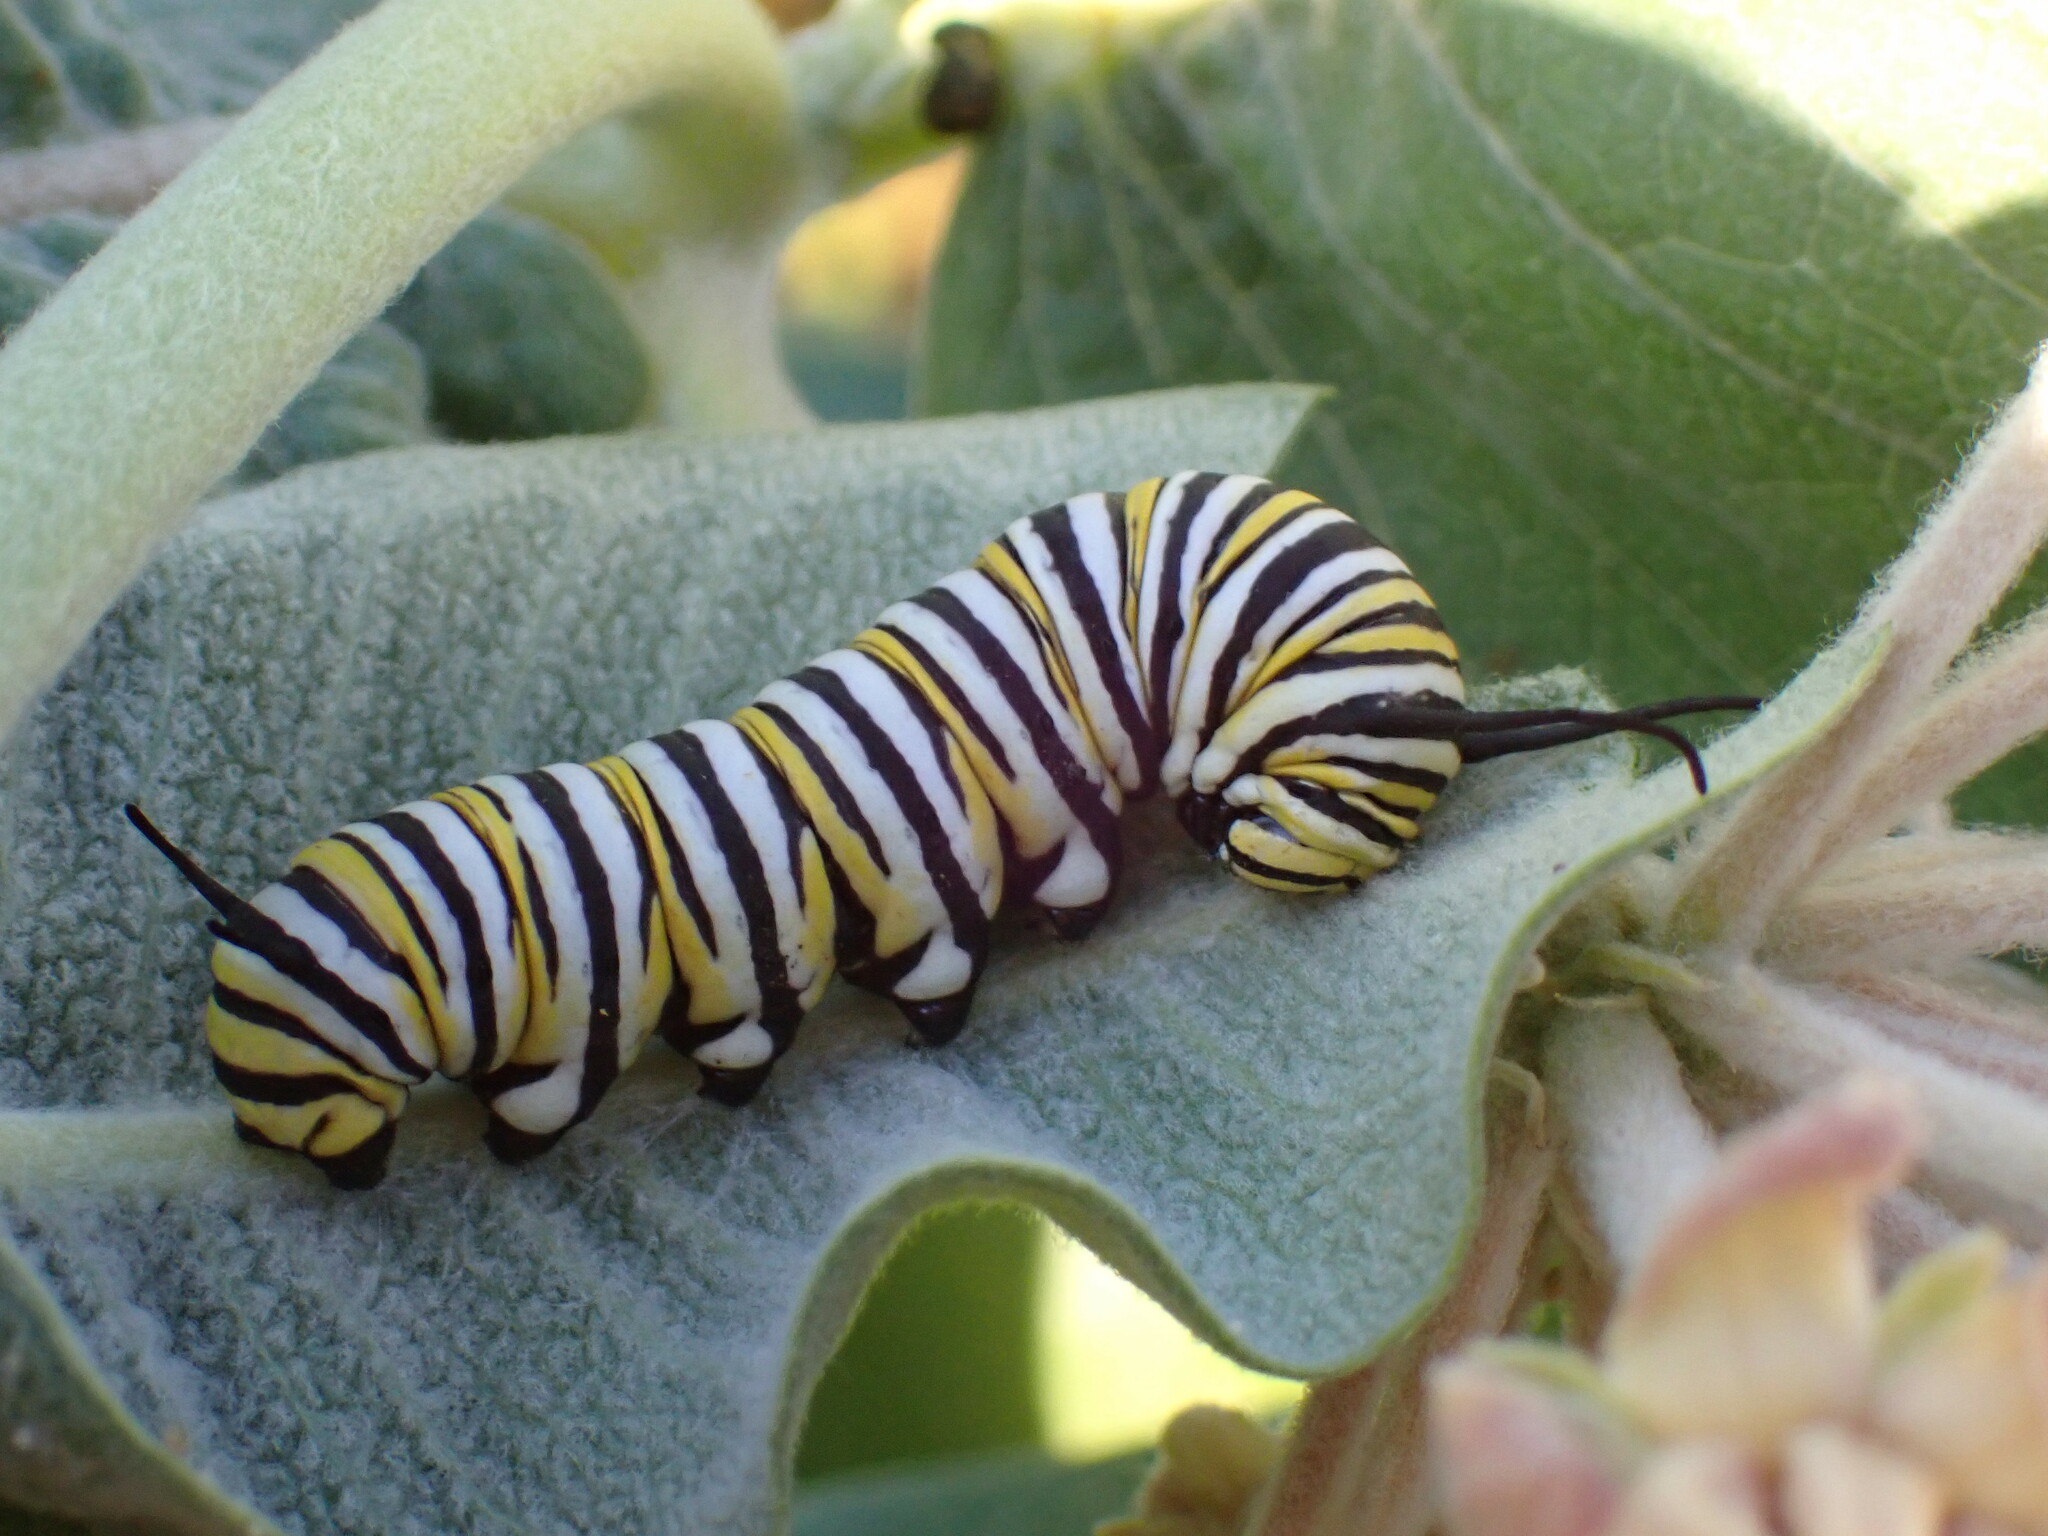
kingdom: Animalia
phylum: Arthropoda
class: Insecta
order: Lepidoptera
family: Nymphalidae
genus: Danaus
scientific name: Danaus plexippus
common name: Monarch
